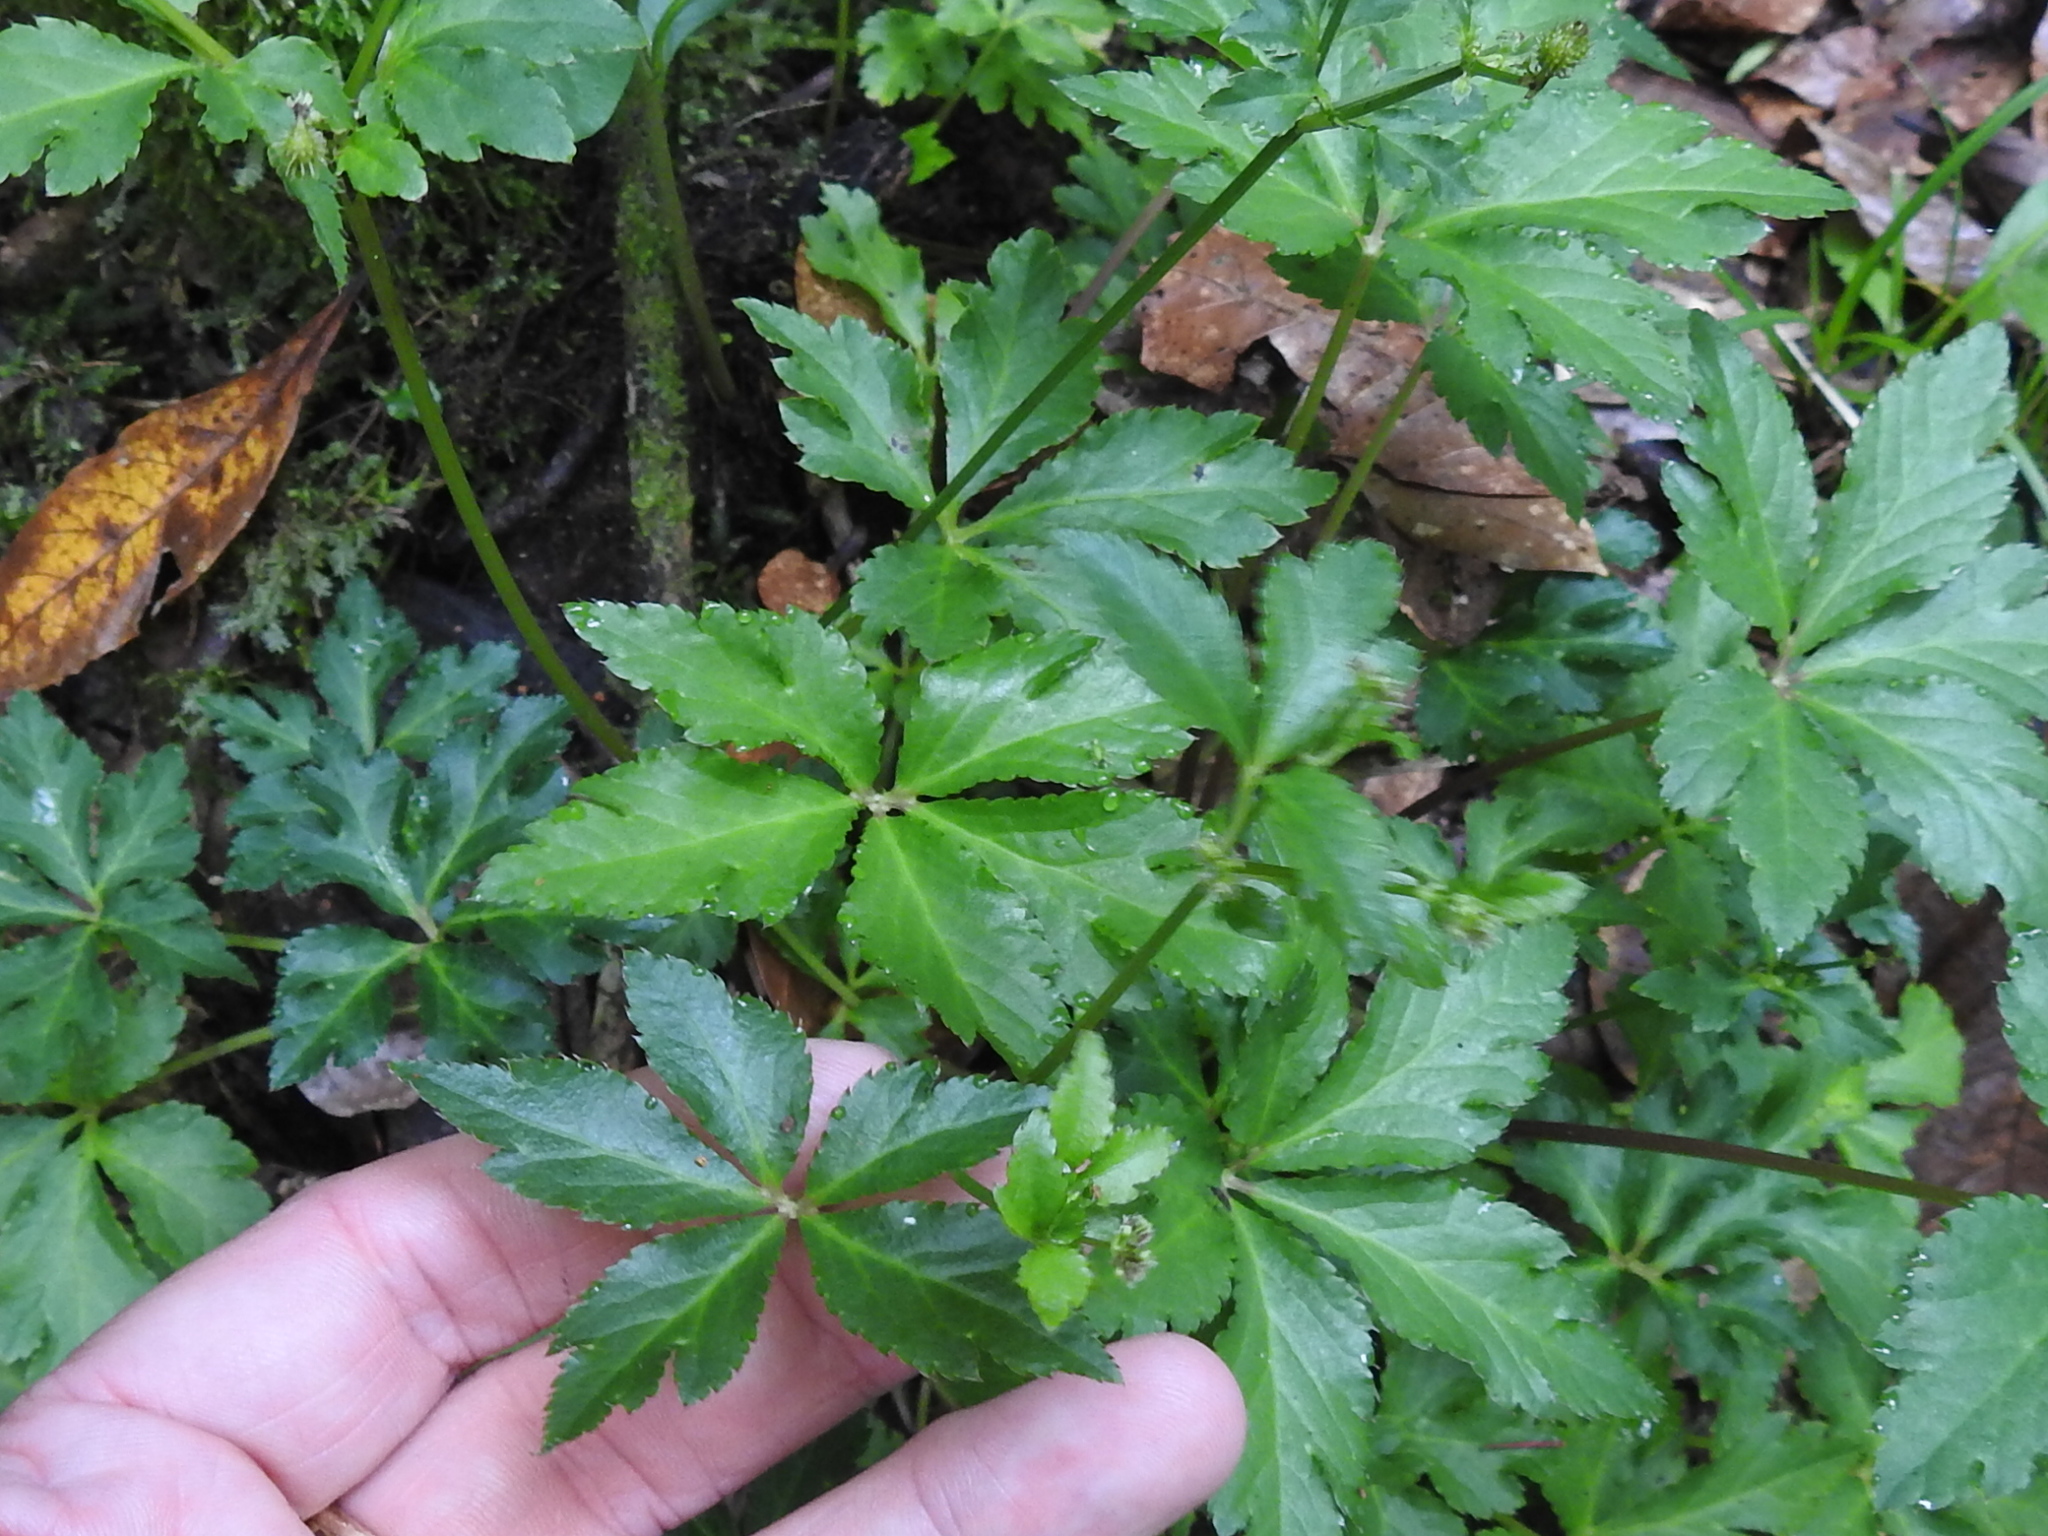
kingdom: Plantae
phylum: Tracheophyta
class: Magnoliopsida
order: Apiales
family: Apiaceae
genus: Sanicula
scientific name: Sanicula liberta
